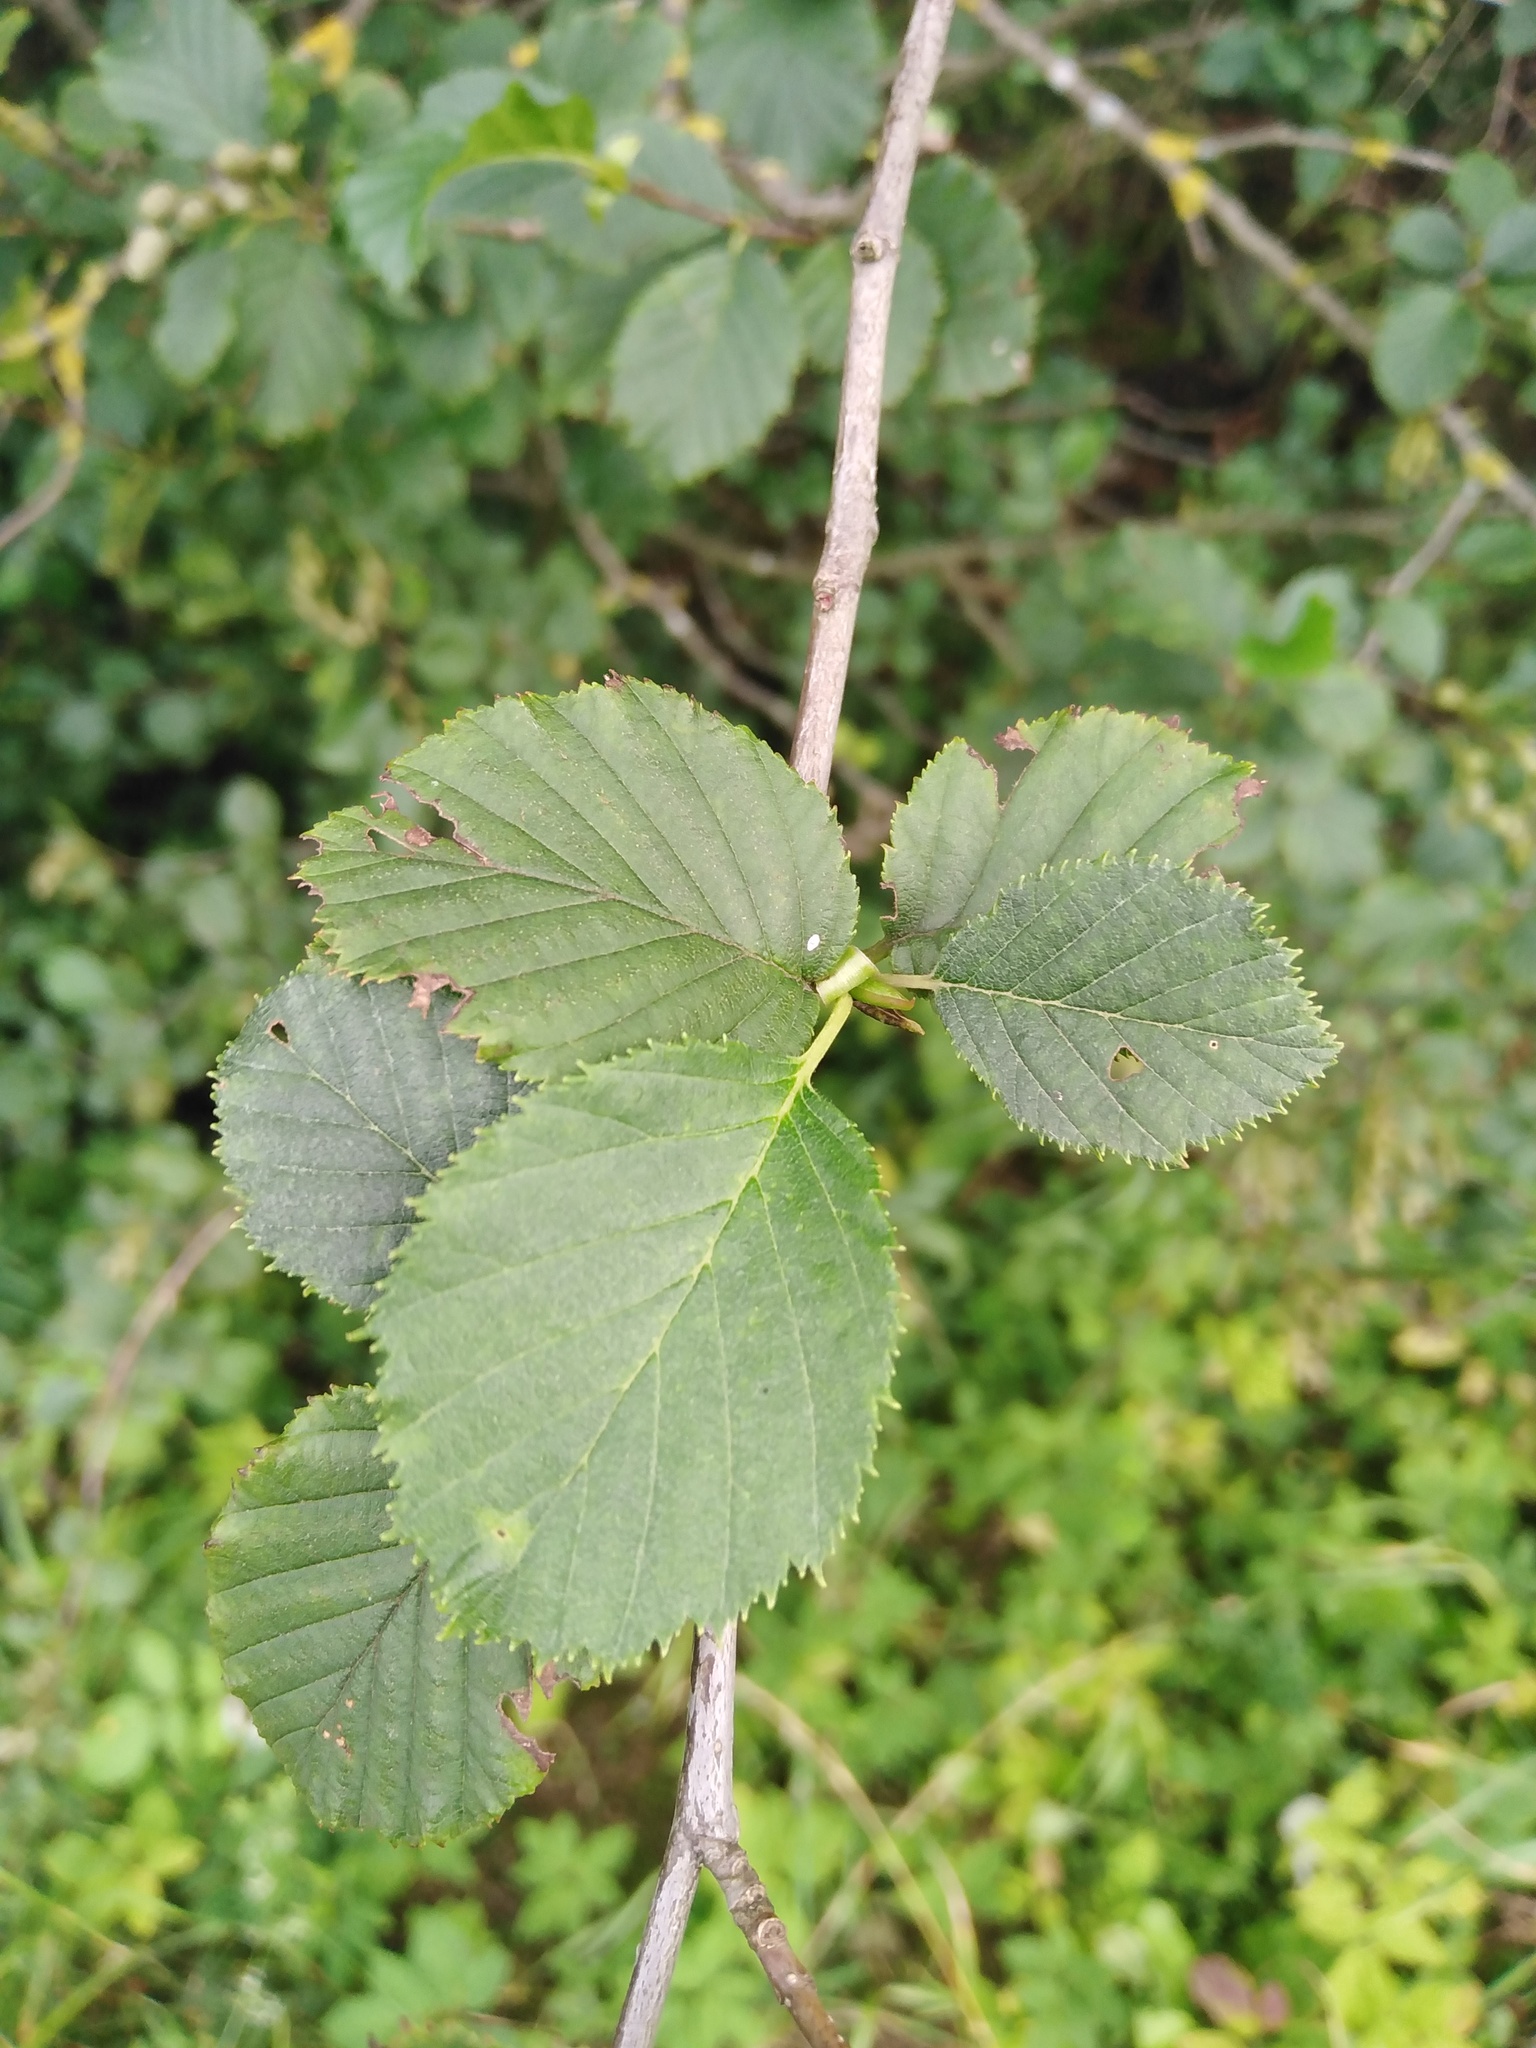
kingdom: Plantae
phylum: Tracheophyta
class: Magnoliopsida
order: Fagales
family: Betulaceae
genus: Alnus
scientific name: Alnus alnobetula
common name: Green alder
